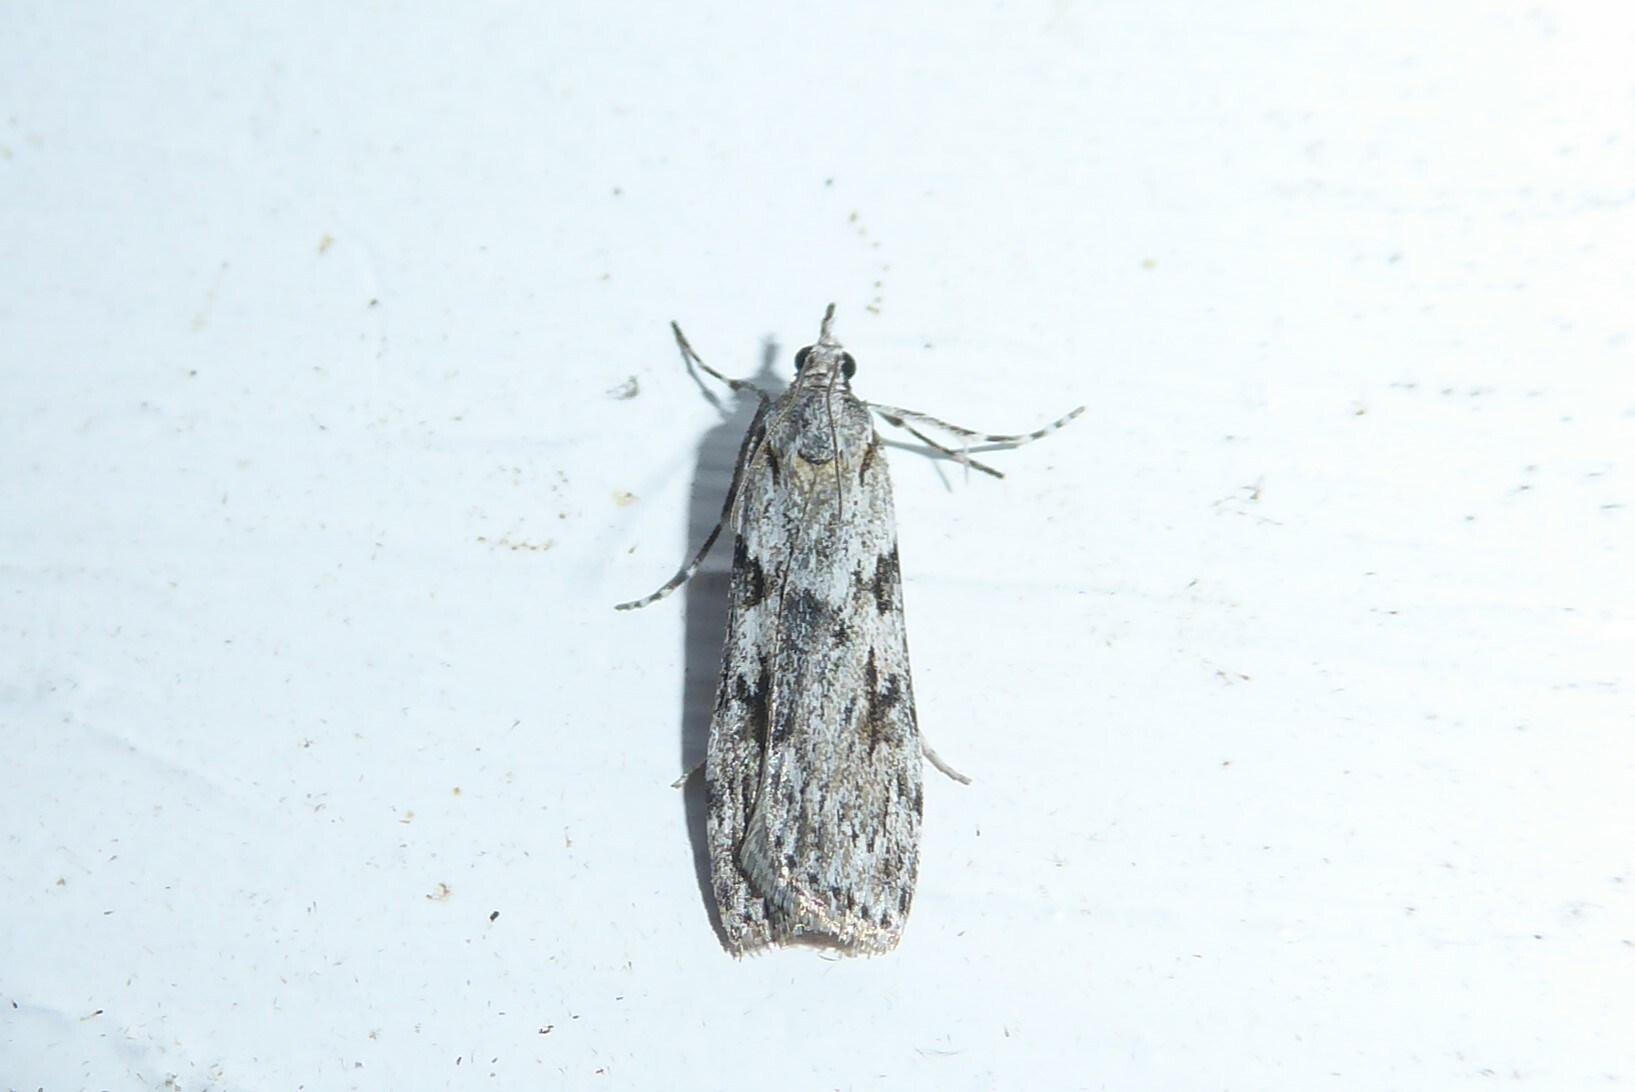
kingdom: Animalia
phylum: Arthropoda
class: Insecta
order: Lepidoptera
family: Crambidae
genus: Scoparia
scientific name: Scoparia halopis
